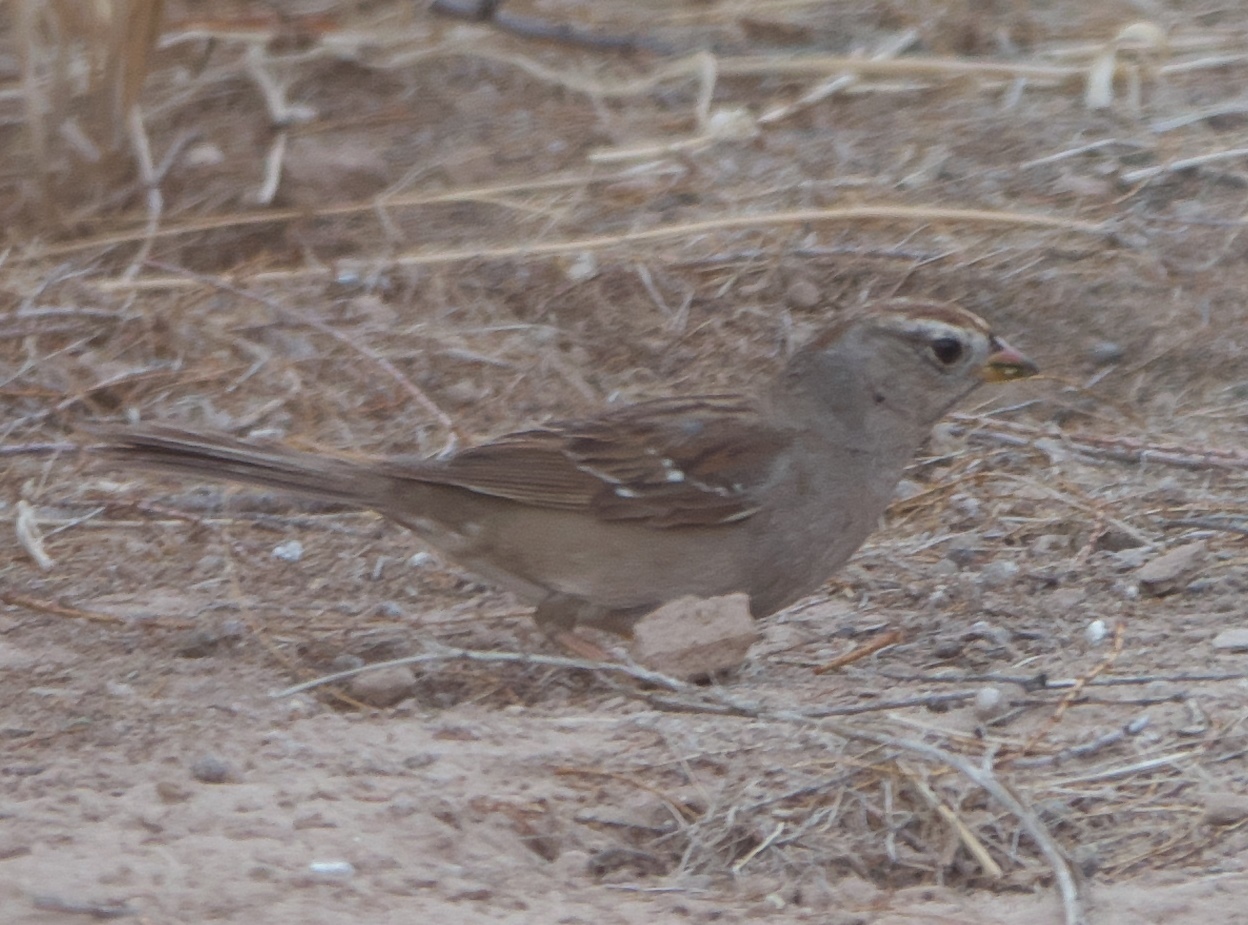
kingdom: Animalia
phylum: Chordata
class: Aves
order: Passeriformes
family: Passerellidae
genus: Zonotrichia
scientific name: Zonotrichia leucophrys
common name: White-crowned sparrow
